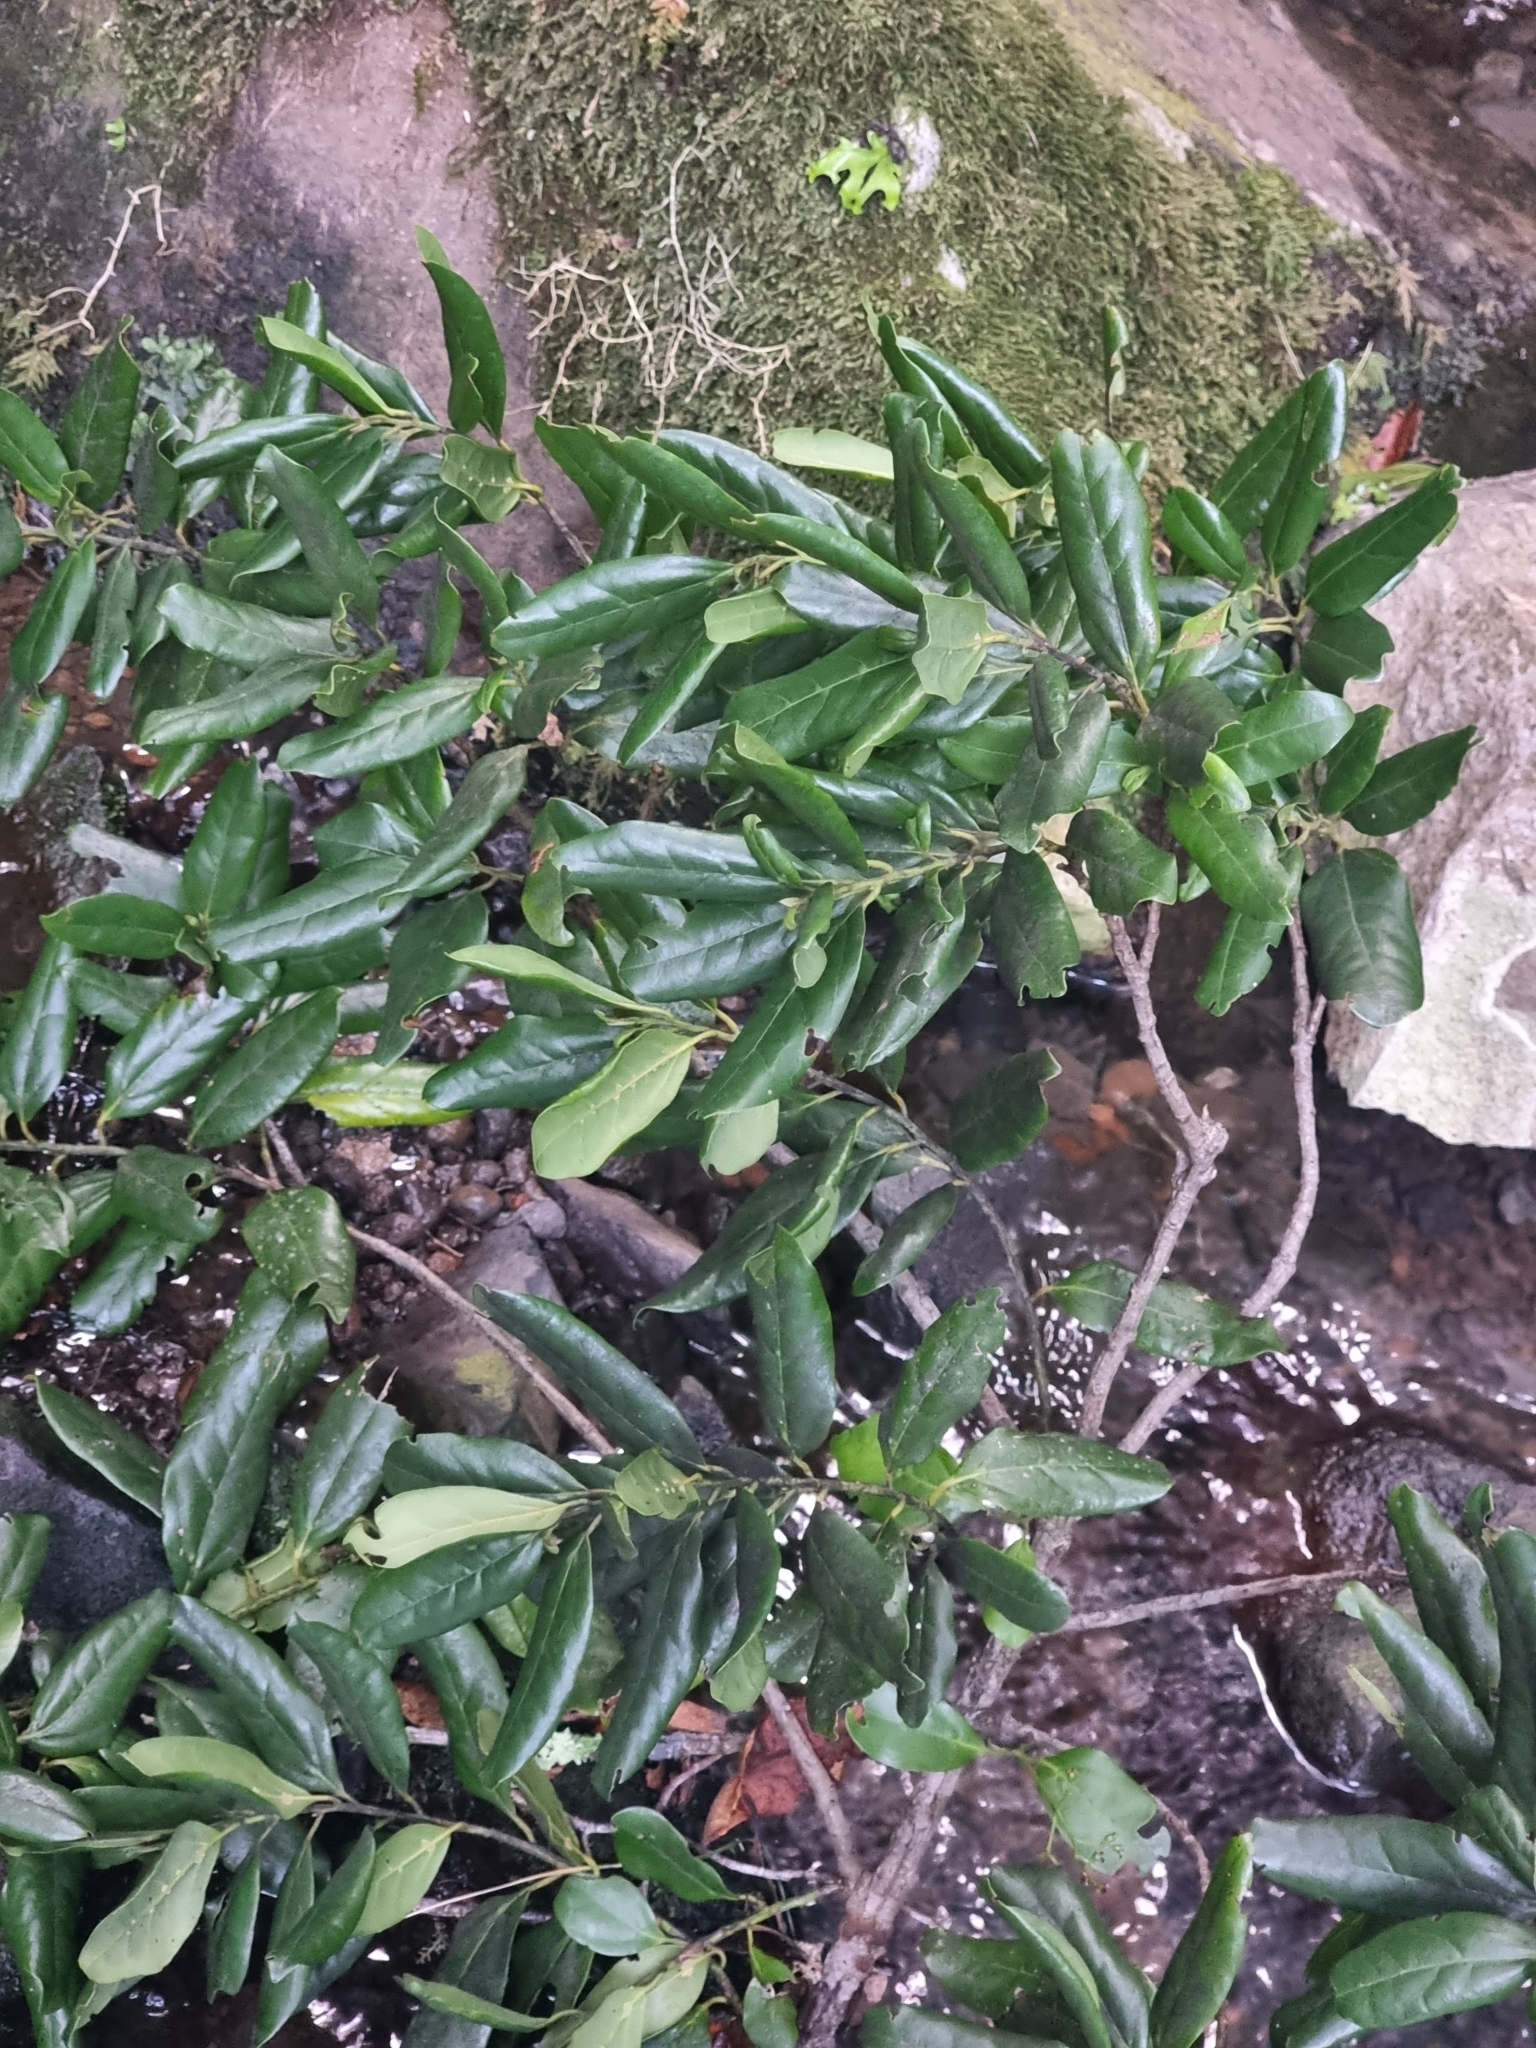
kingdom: Plantae
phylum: Tracheophyta
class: Magnoliopsida
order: Laurales
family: Lauraceae
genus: Mespilodaphne
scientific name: Mespilodaphne foetens
